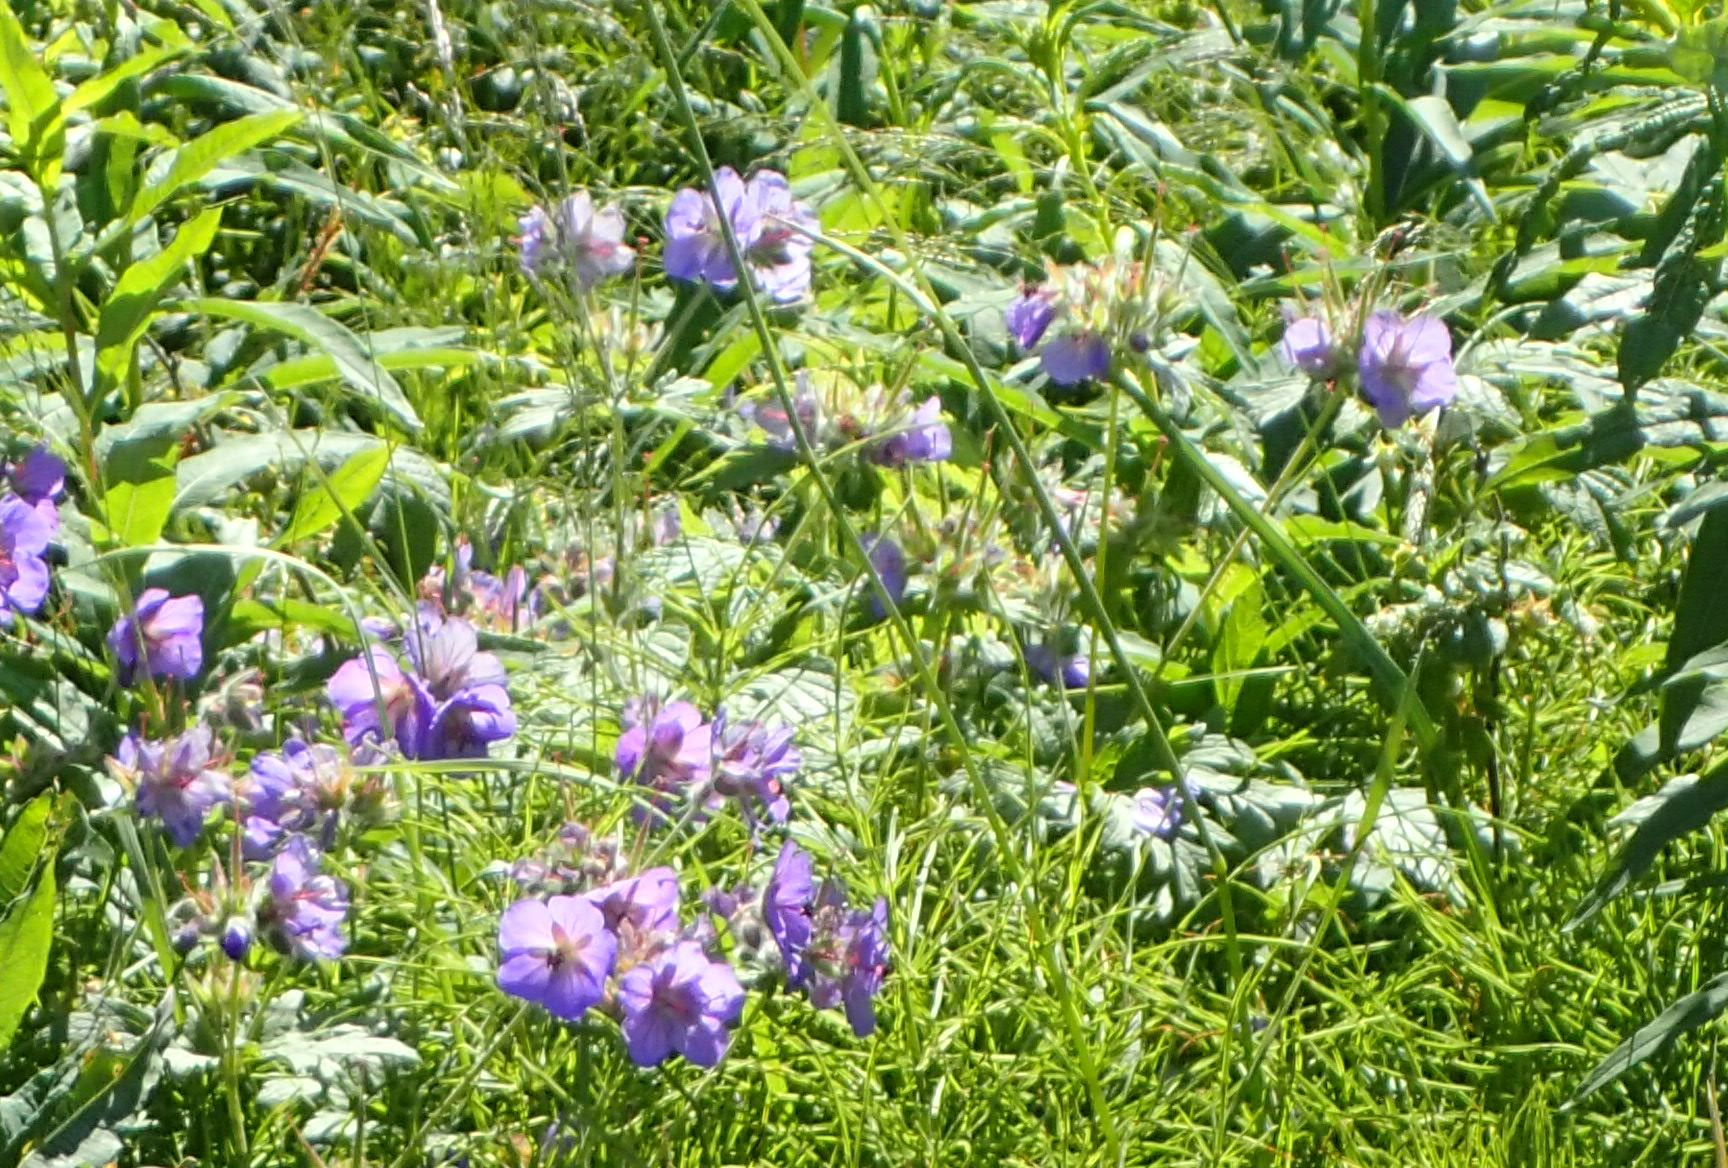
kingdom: Plantae
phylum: Tracheophyta
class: Magnoliopsida
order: Geraniales
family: Geraniaceae
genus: Geranium
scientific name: Geranium erianthum
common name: Northern crane's-bill
